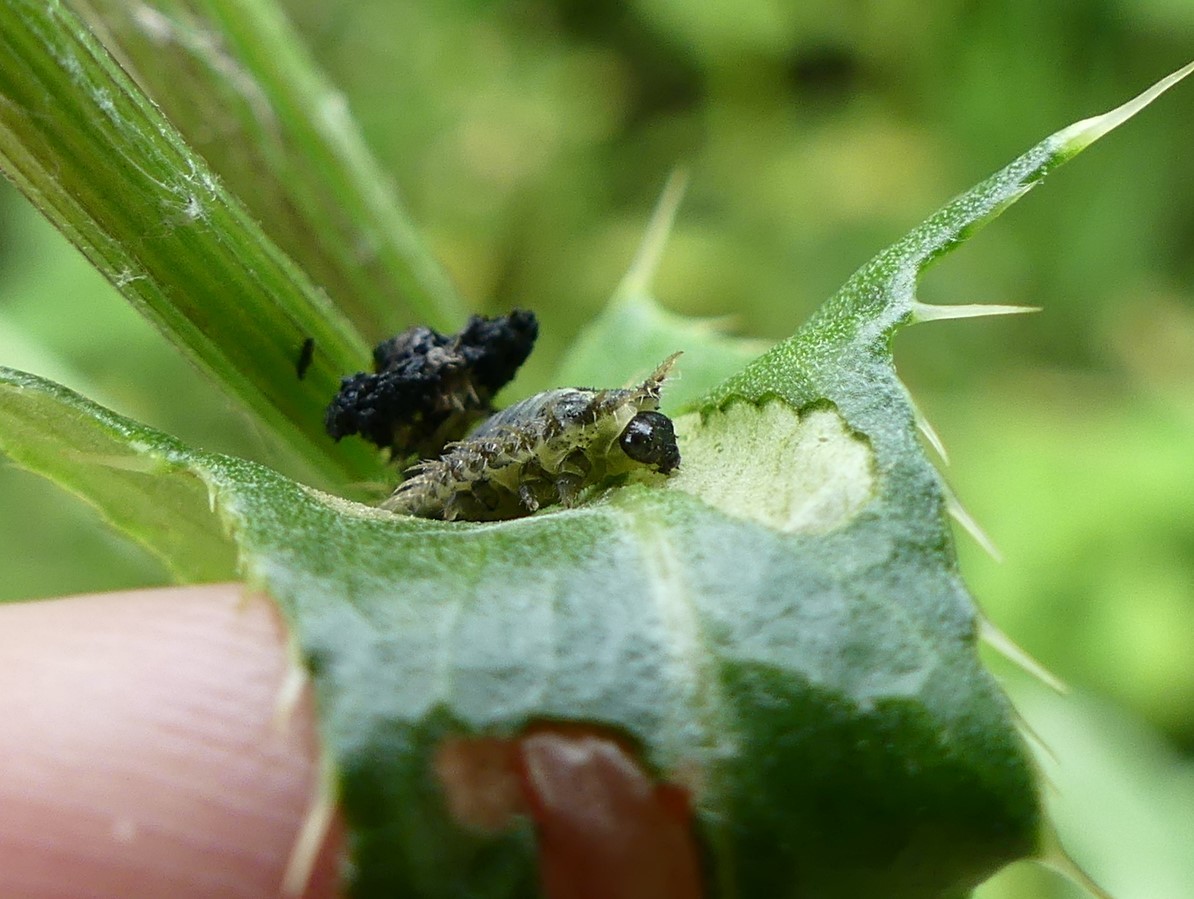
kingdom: Animalia
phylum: Arthropoda
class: Insecta
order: Coleoptera
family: Chrysomelidae
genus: Cassida
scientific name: Cassida rubiginosa
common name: Thistle tortoise beetle
